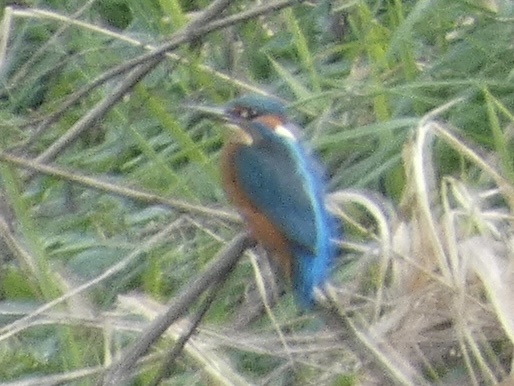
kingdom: Animalia
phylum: Chordata
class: Aves
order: Coraciiformes
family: Alcedinidae
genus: Alcedo
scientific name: Alcedo atthis
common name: Common kingfisher
